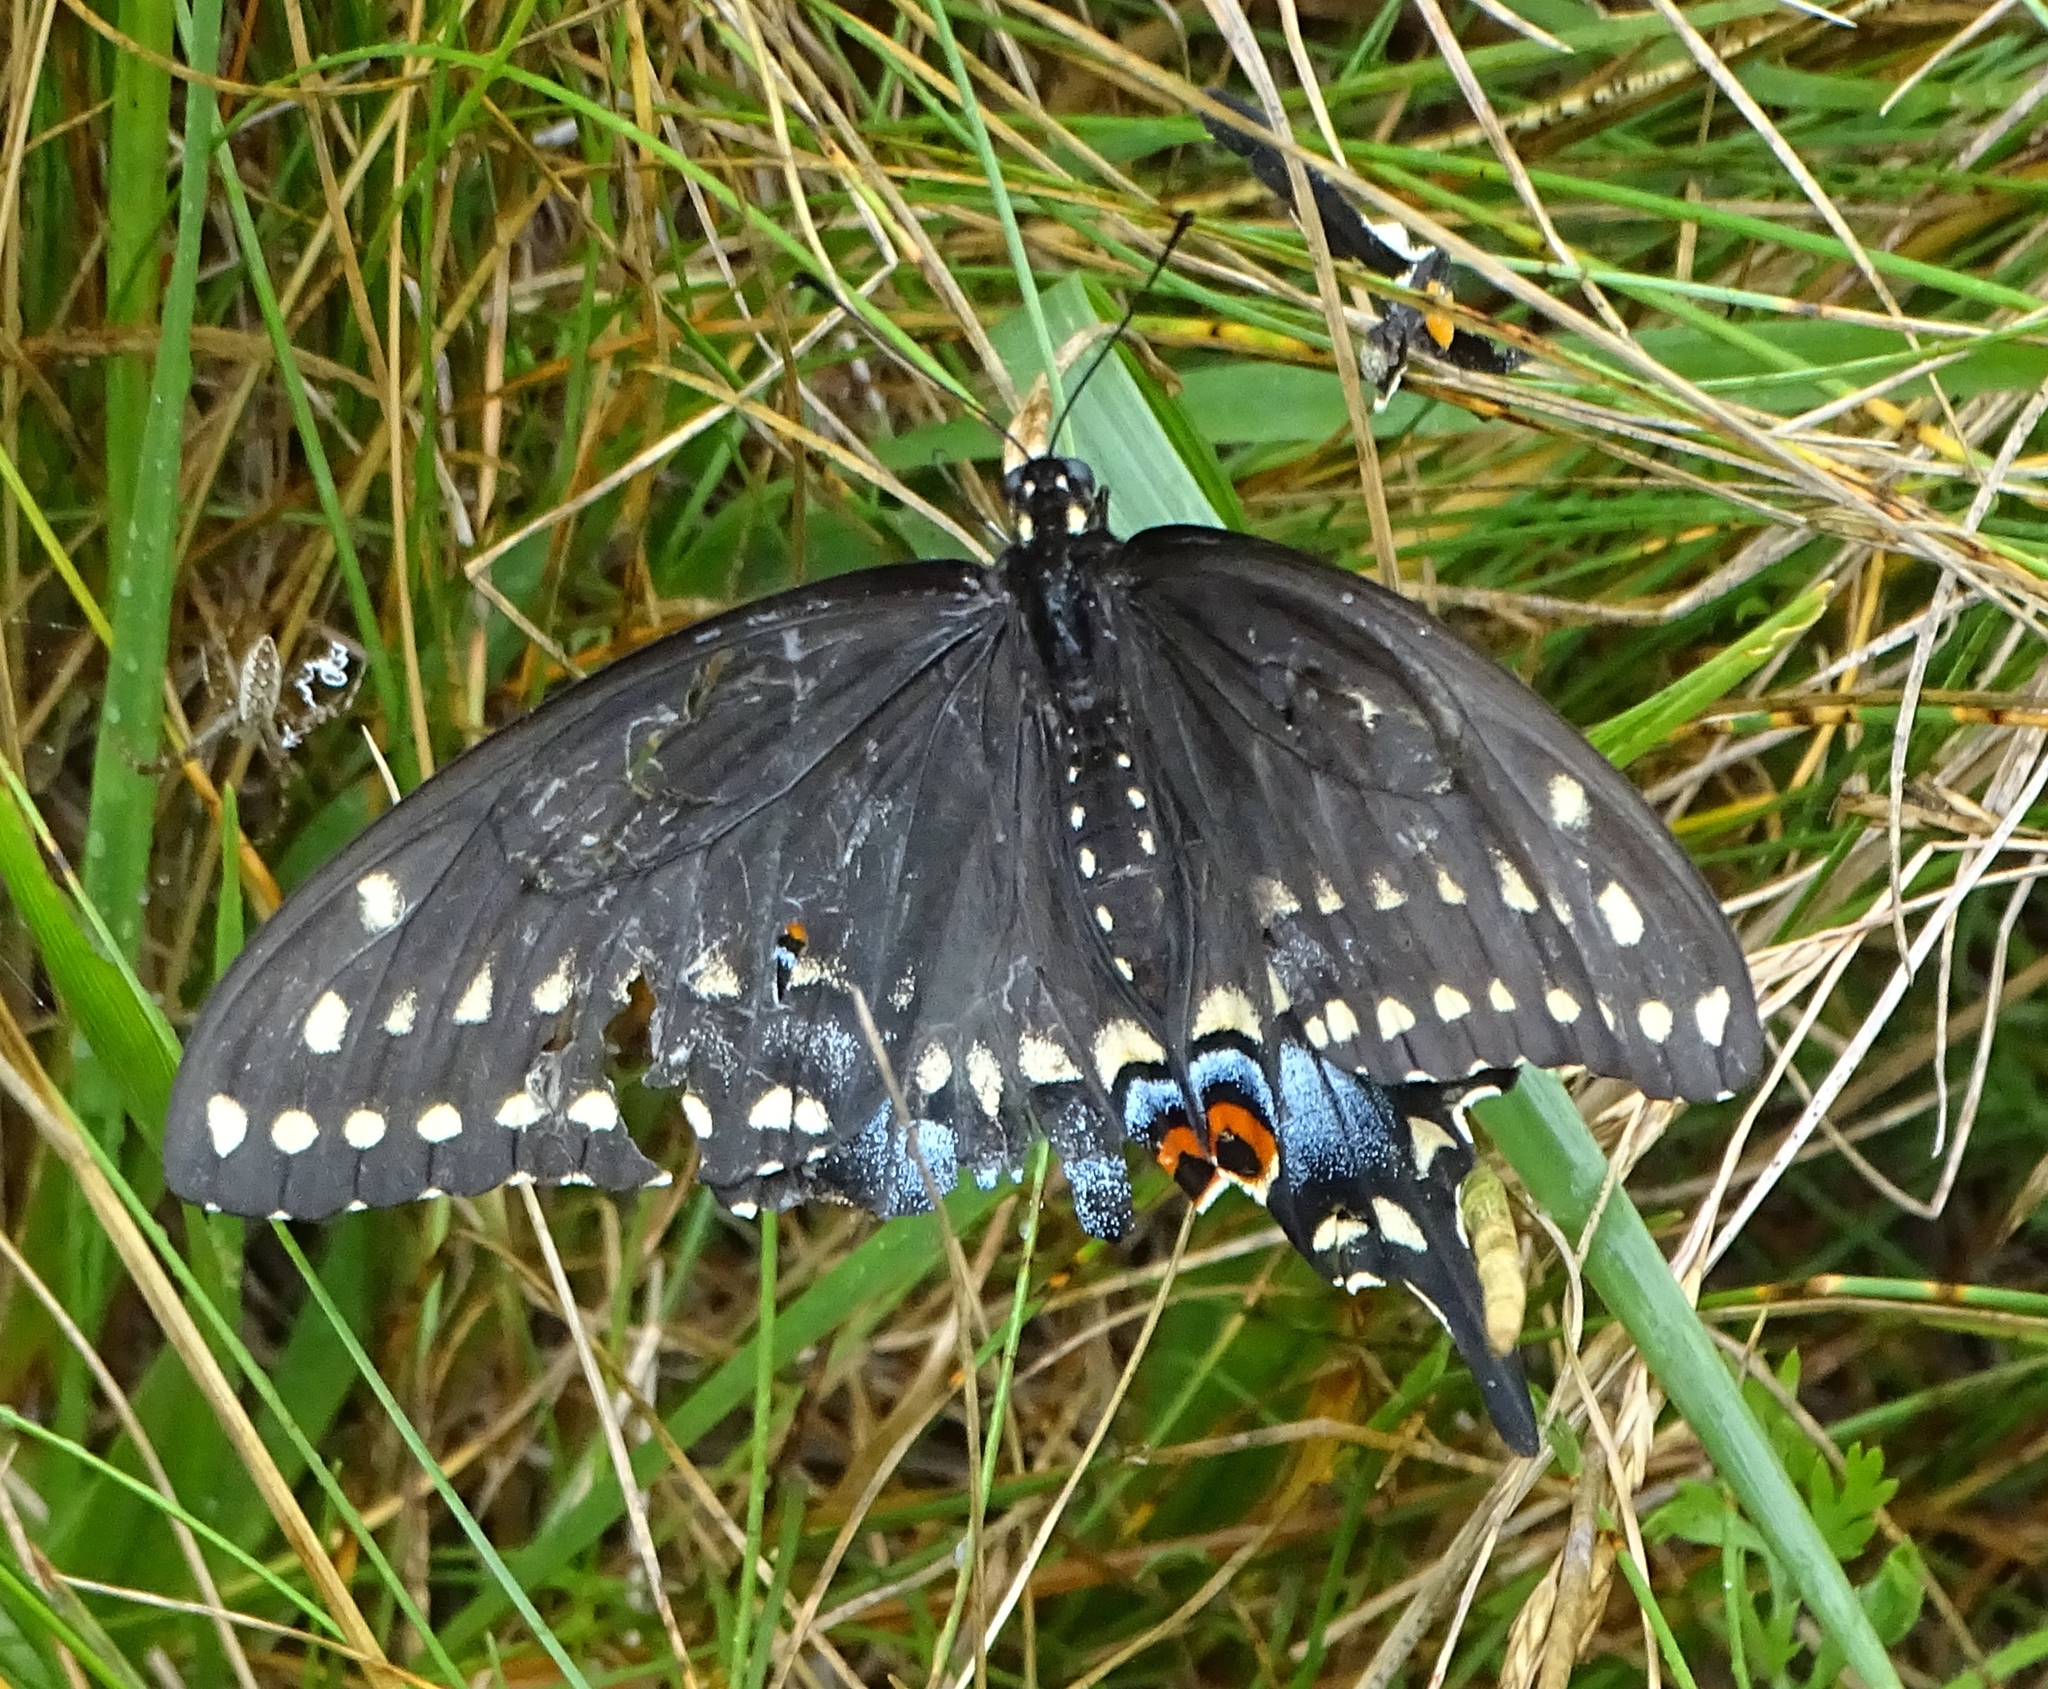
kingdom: Animalia
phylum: Arthropoda
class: Insecta
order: Lepidoptera
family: Papilionidae
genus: Papilio
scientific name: Papilio polyxenes
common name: Black swallowtail
